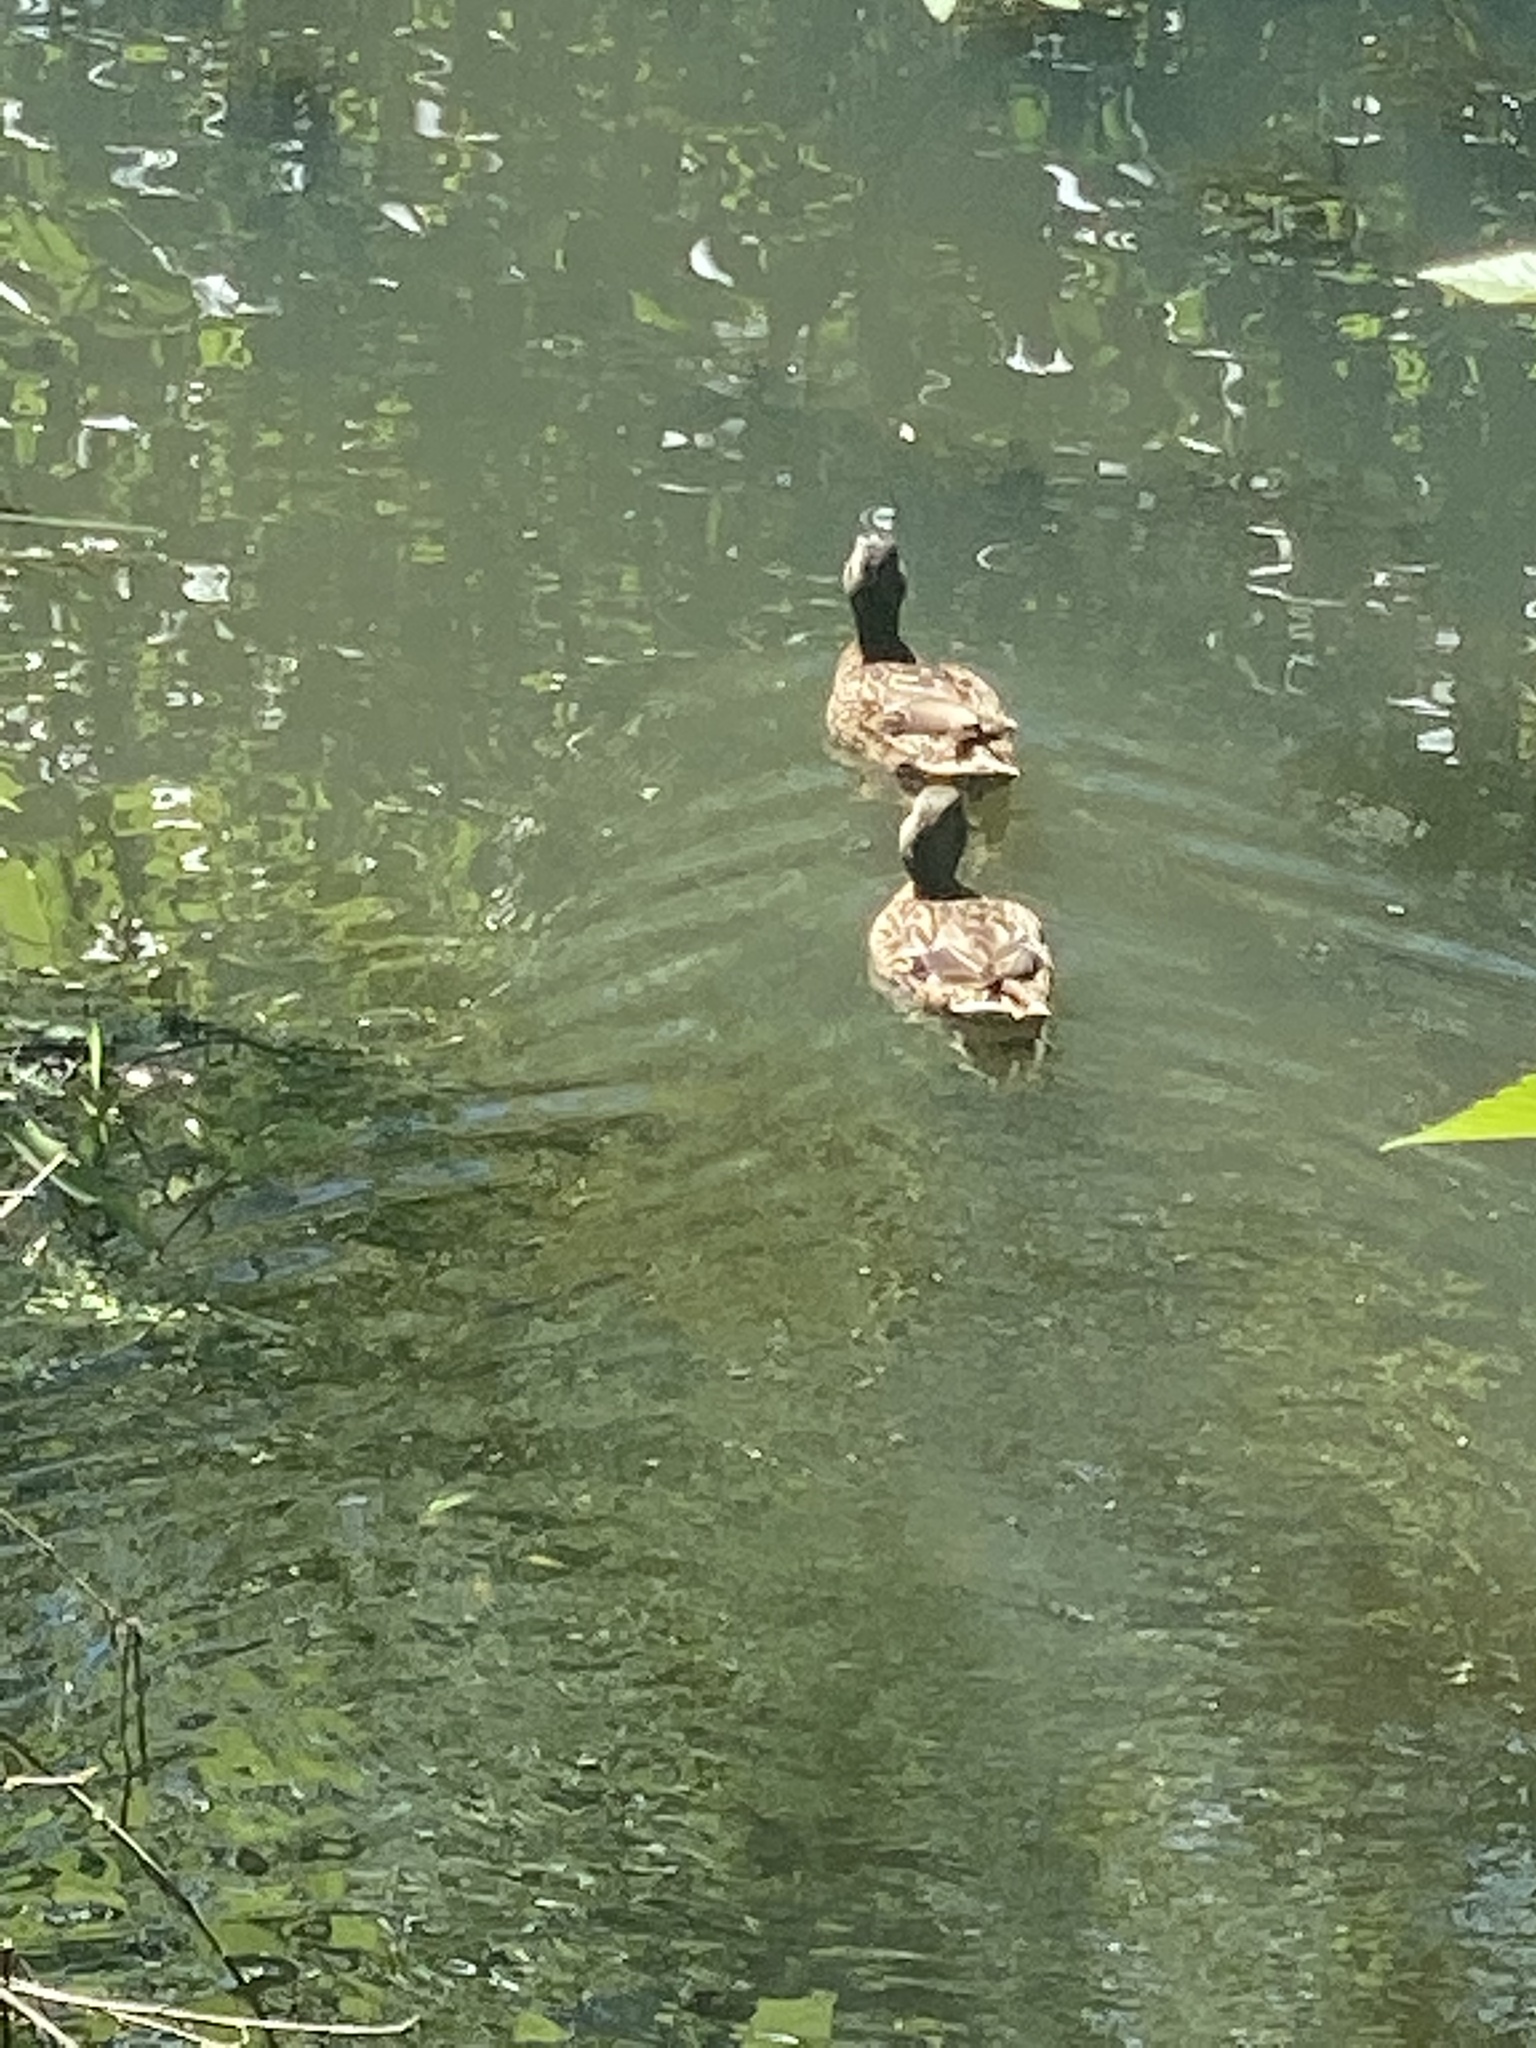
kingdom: Animalia
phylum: Chordata
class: Aves
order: Anseriformes
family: Anatidae
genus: Anas
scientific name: Anas platyrhynchos
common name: Mallard
